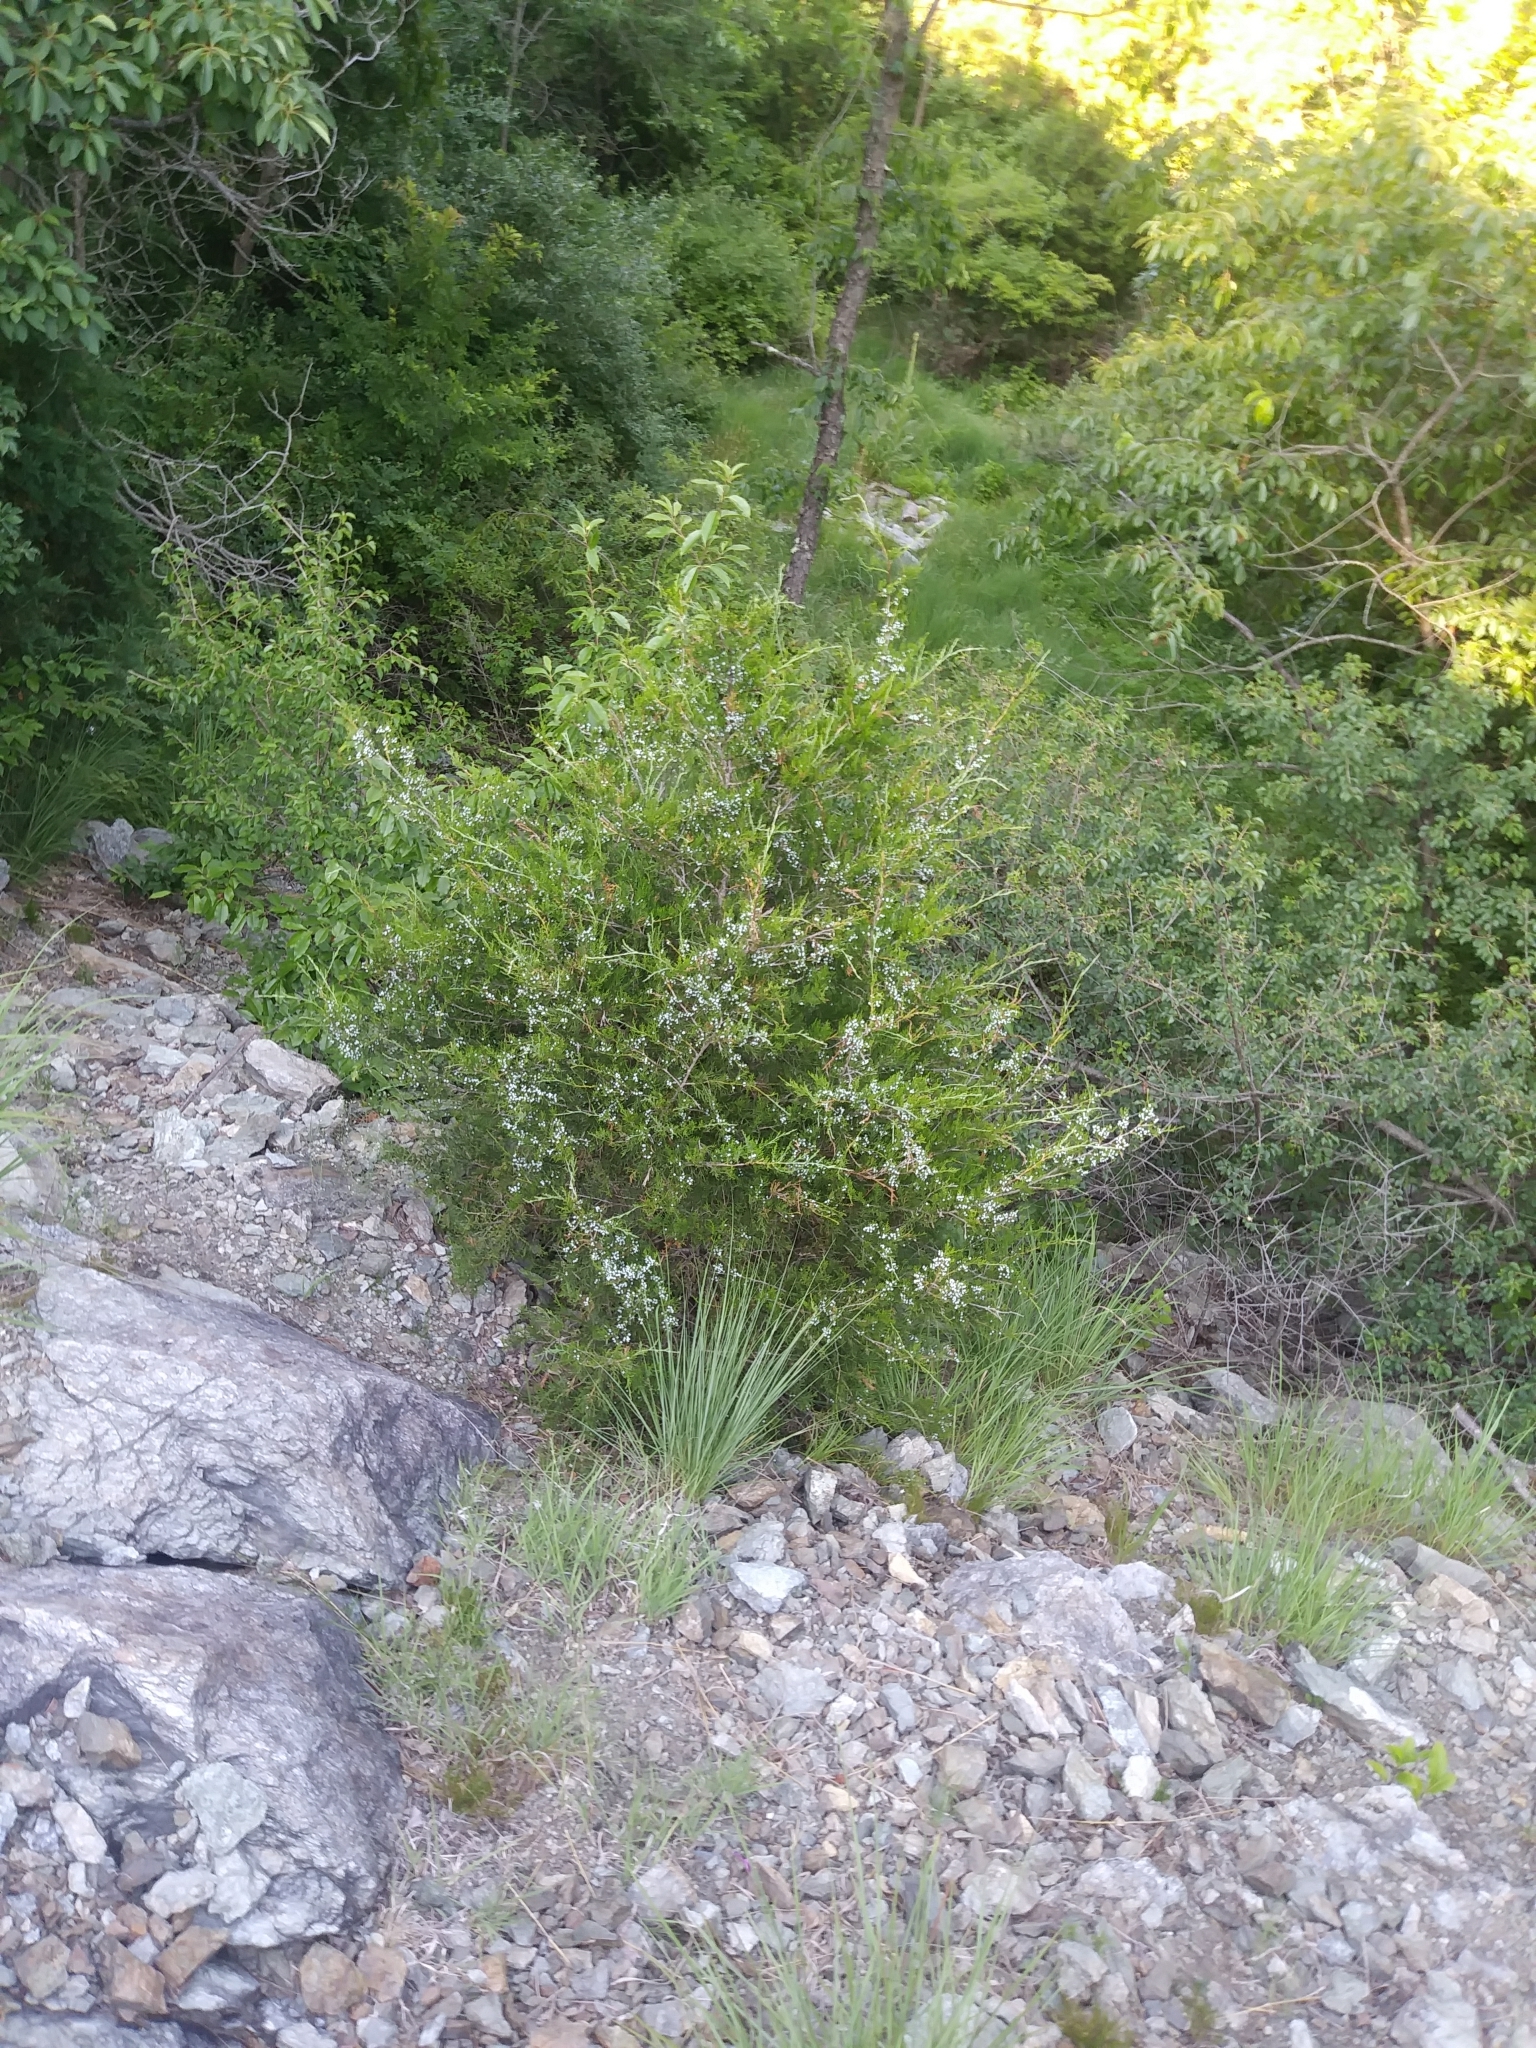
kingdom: Plantae
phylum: Tracheophyta
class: Pinopsida
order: Pinales
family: Cupressaceae
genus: Juniperus
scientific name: Juniperus virginiana
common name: Red juniper
